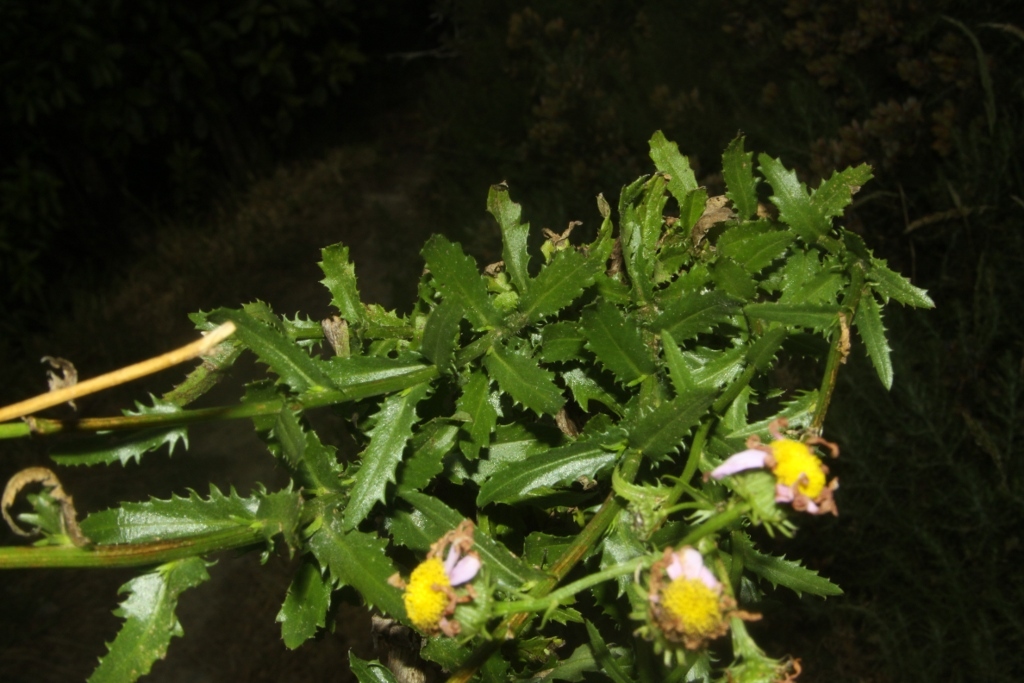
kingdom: Plantae
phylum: Tracheophyta
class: Magnoliopsida
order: Asterales
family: Asteraceae
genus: Senecio
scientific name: Senecio glastifolius
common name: Woad-leaved ragwort
